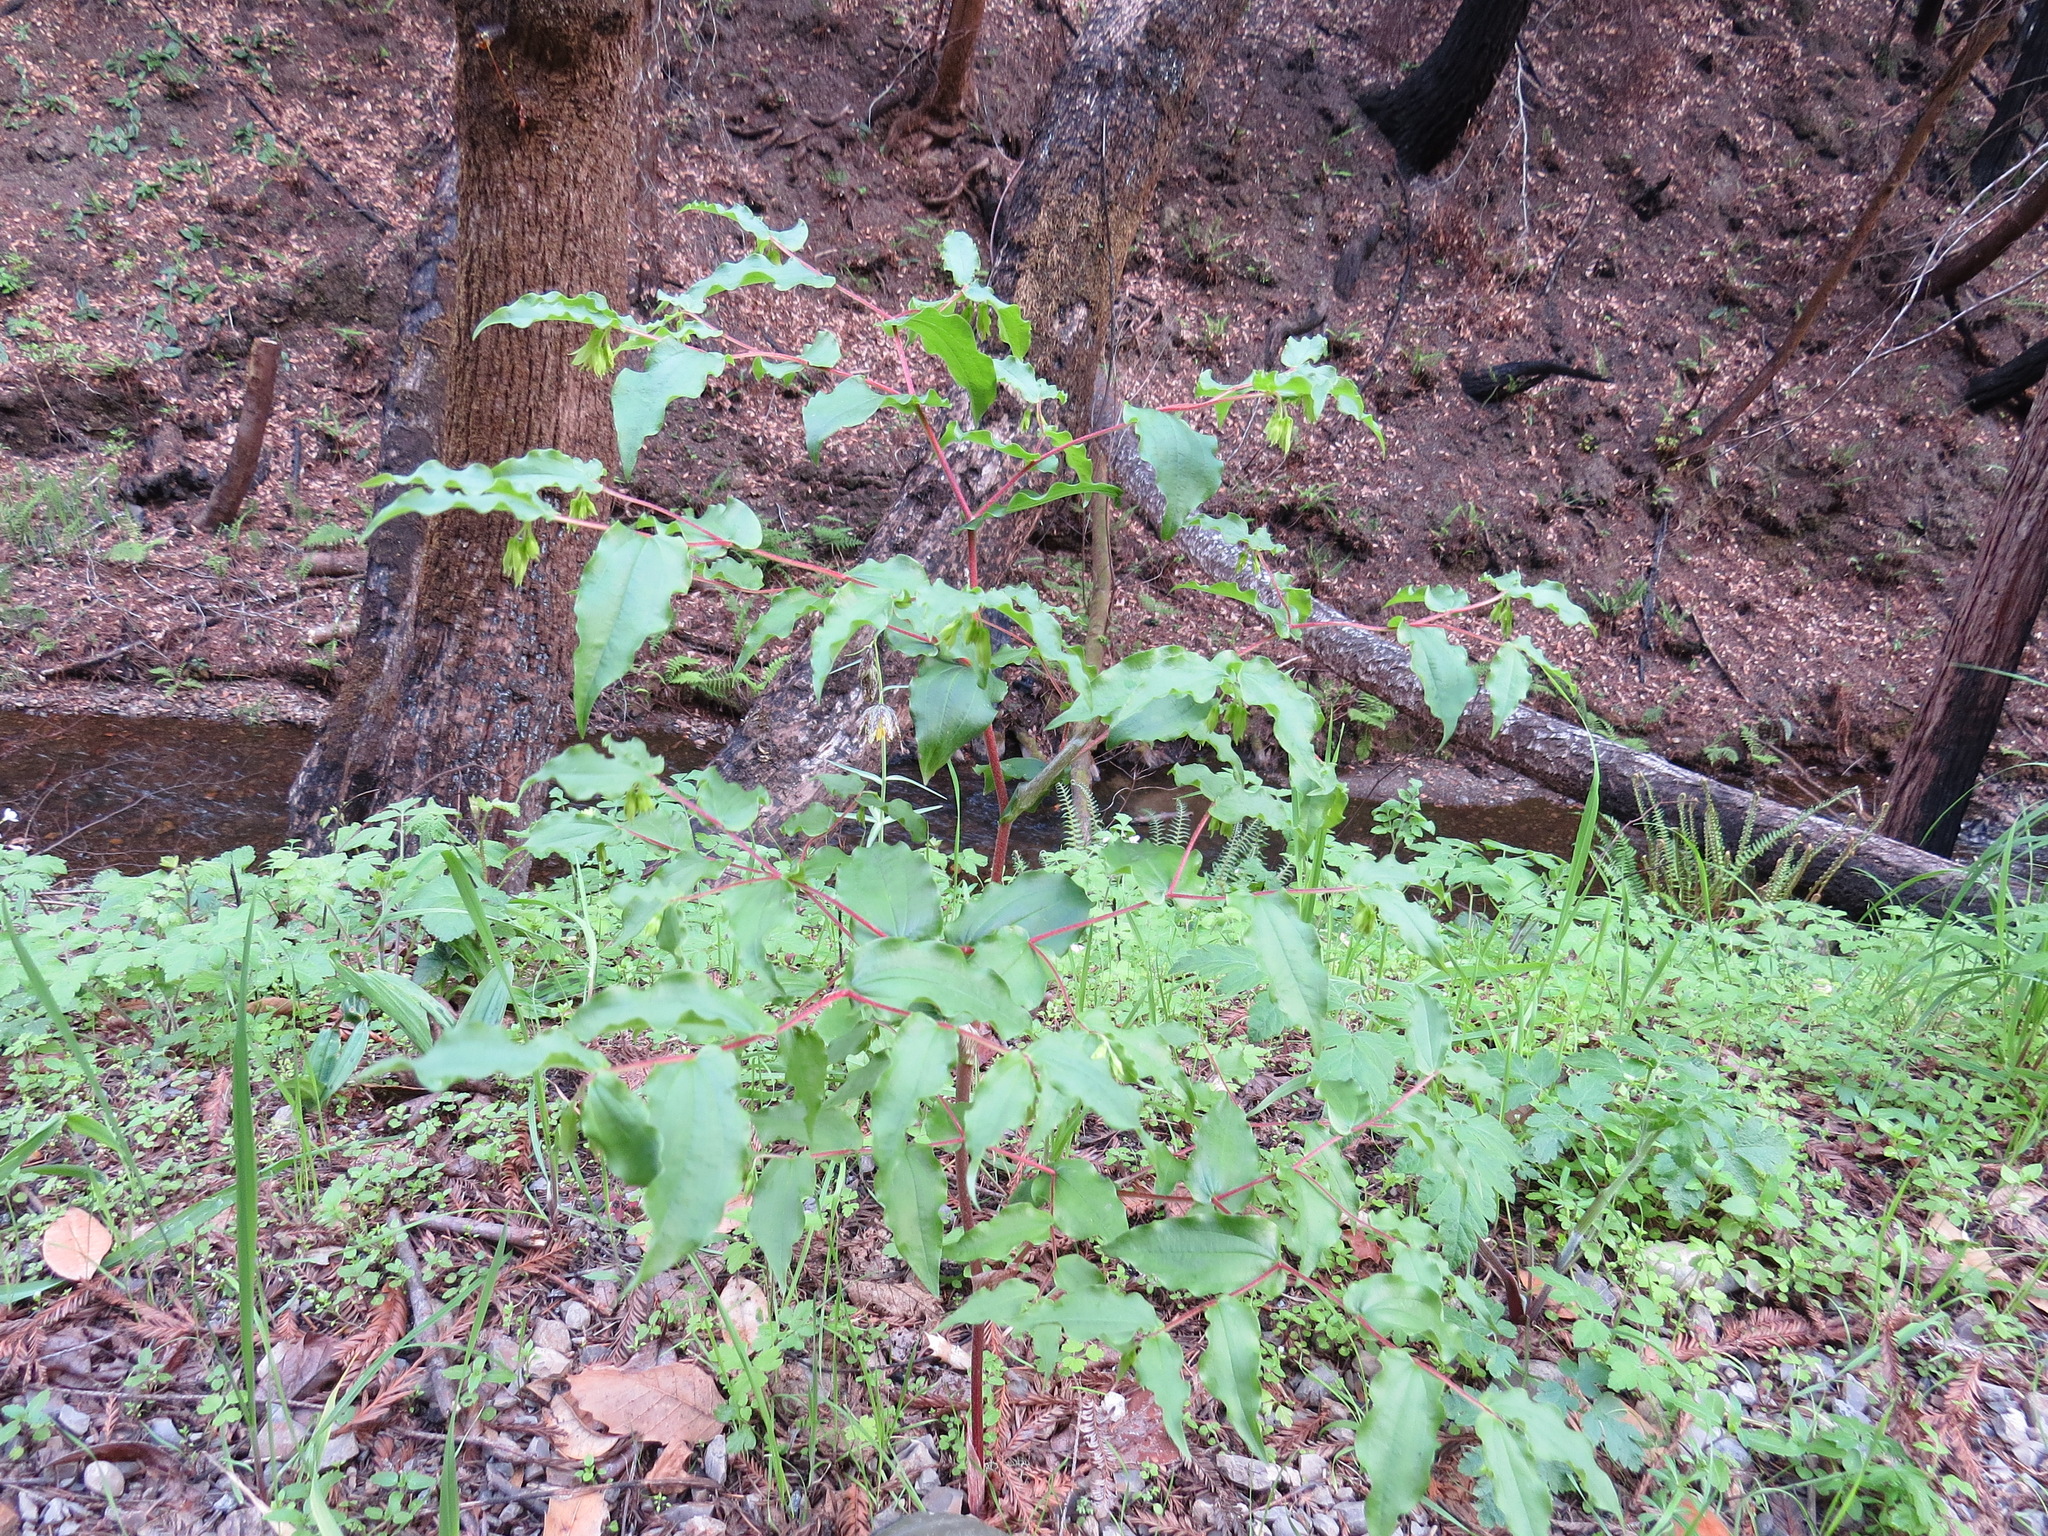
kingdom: Plantae
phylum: Tracheophyta
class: Liliopsida
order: Liliales
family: Liliaceae
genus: Prosartes
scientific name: Prosartes hookeri
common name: Fairy-bells
